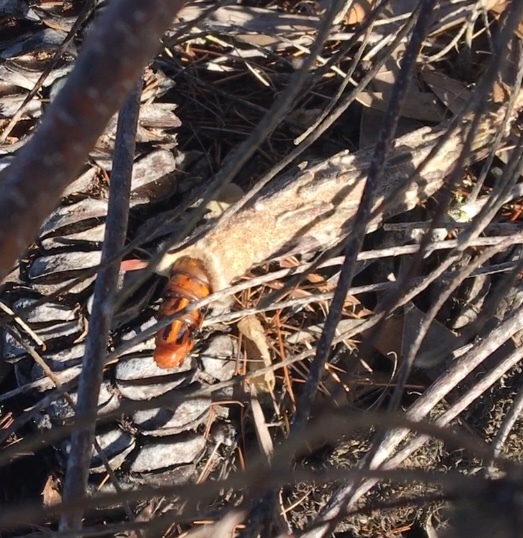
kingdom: Animalia
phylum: Arthropoda
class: Insecta
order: Lepidoptera
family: Psychidae
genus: Metura
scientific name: Metura elongatus
